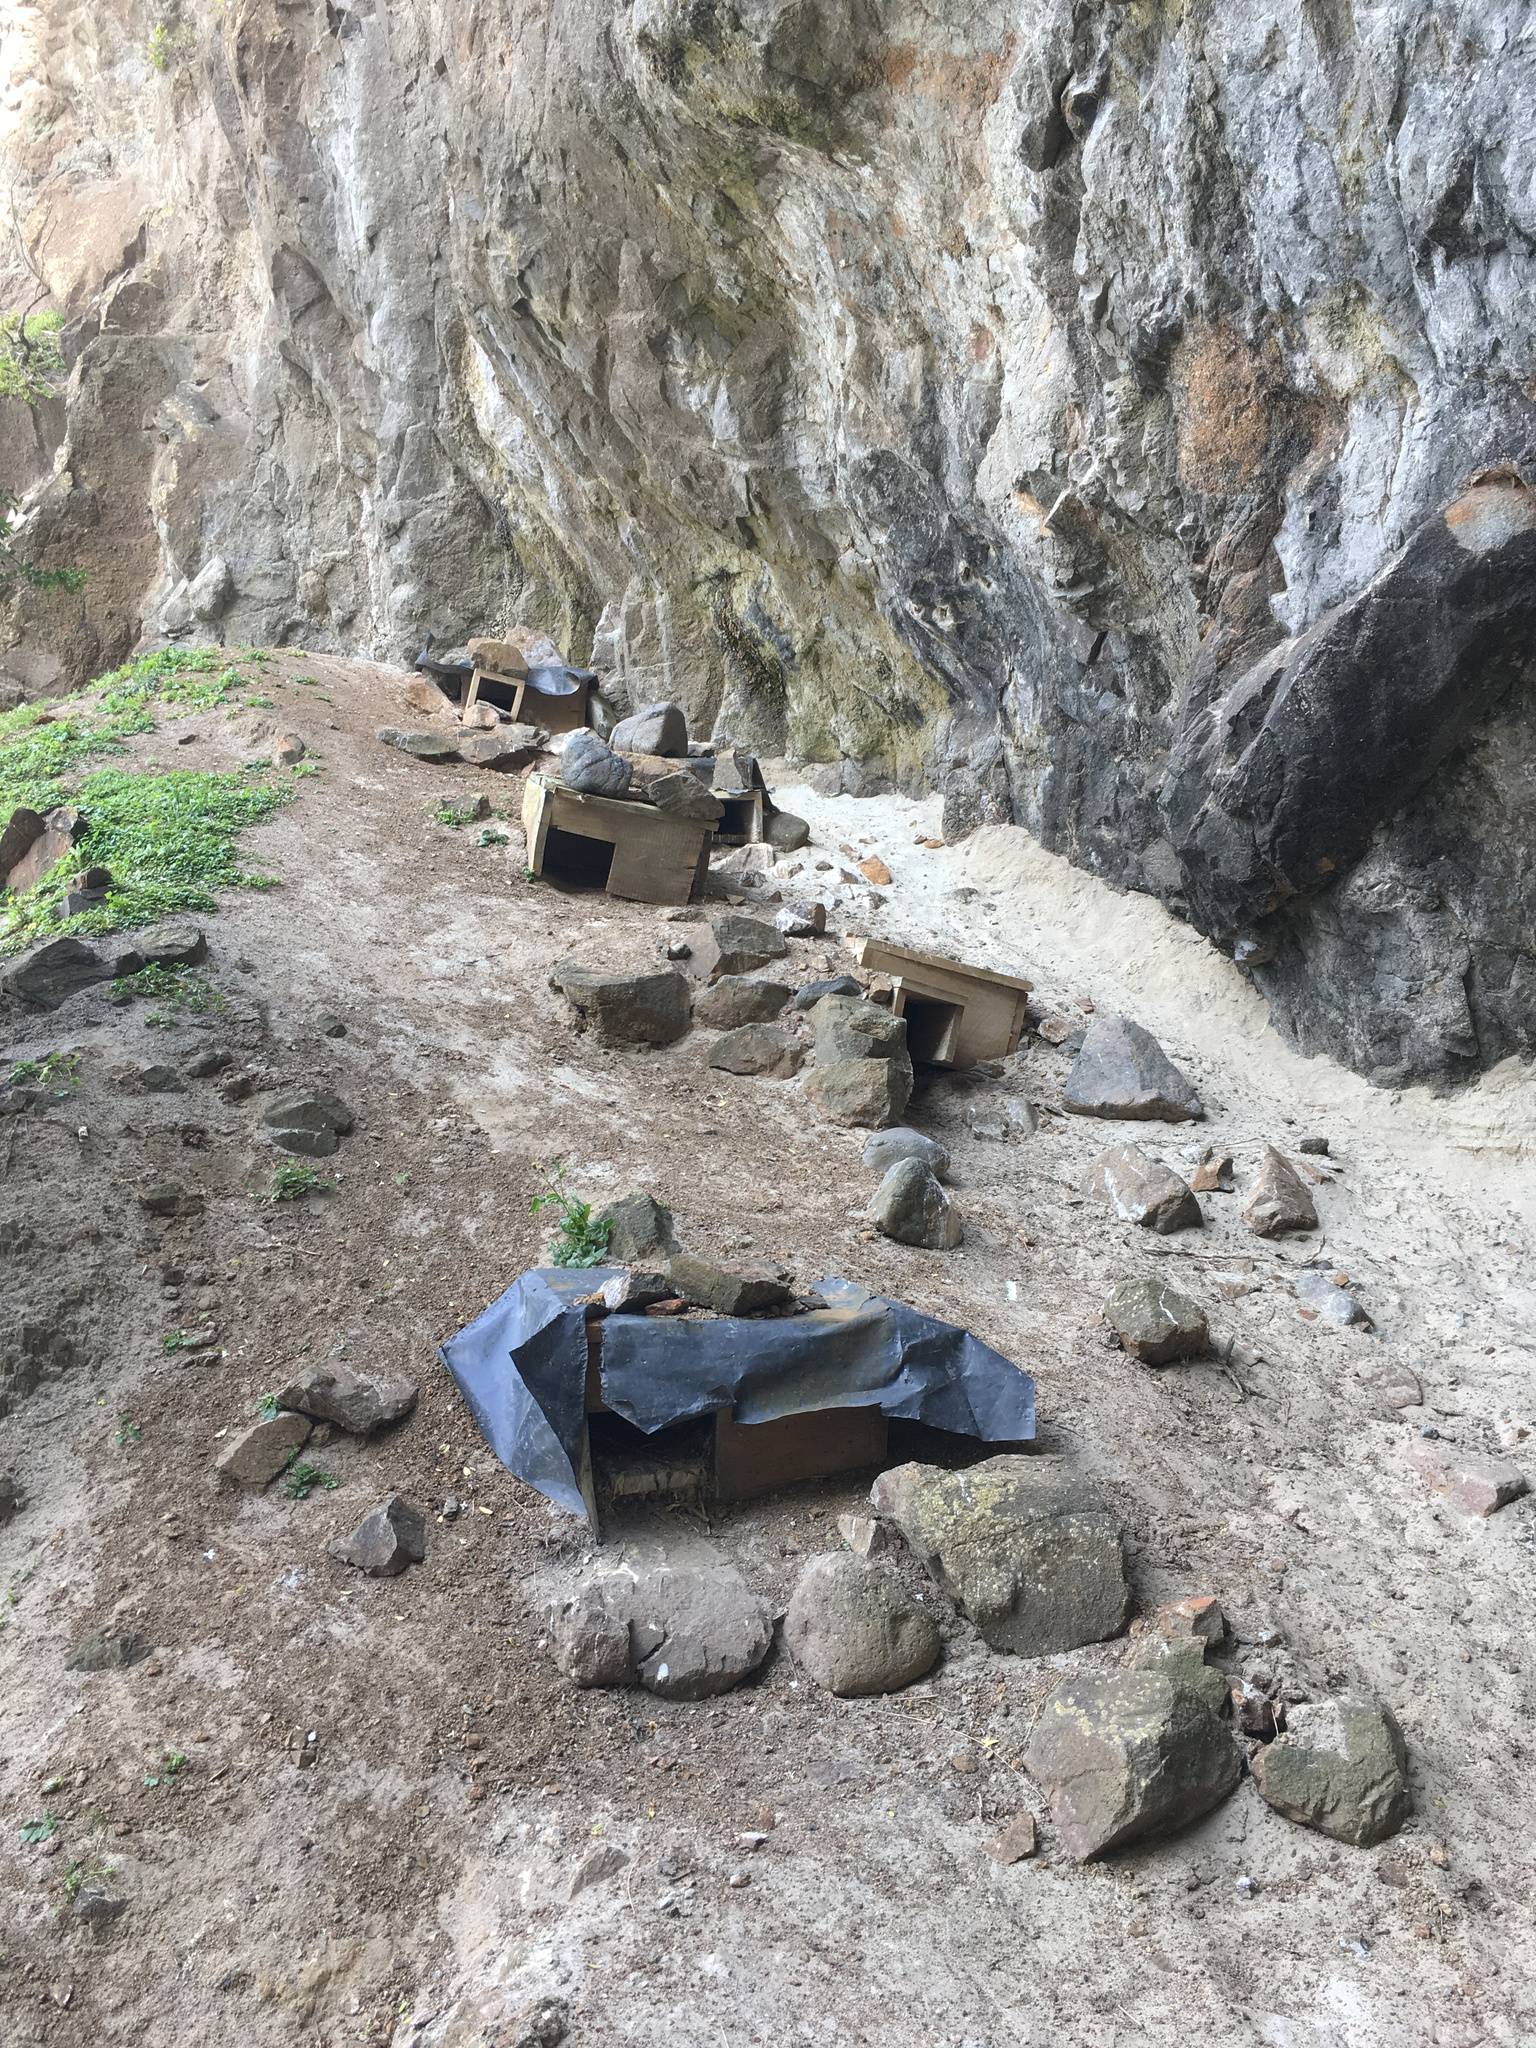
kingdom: Animalia
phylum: Chordata
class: Aves
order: Sphenisciformes
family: Spheniscidae
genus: Eudyptula
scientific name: Eudyptula minor
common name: Little penguin
